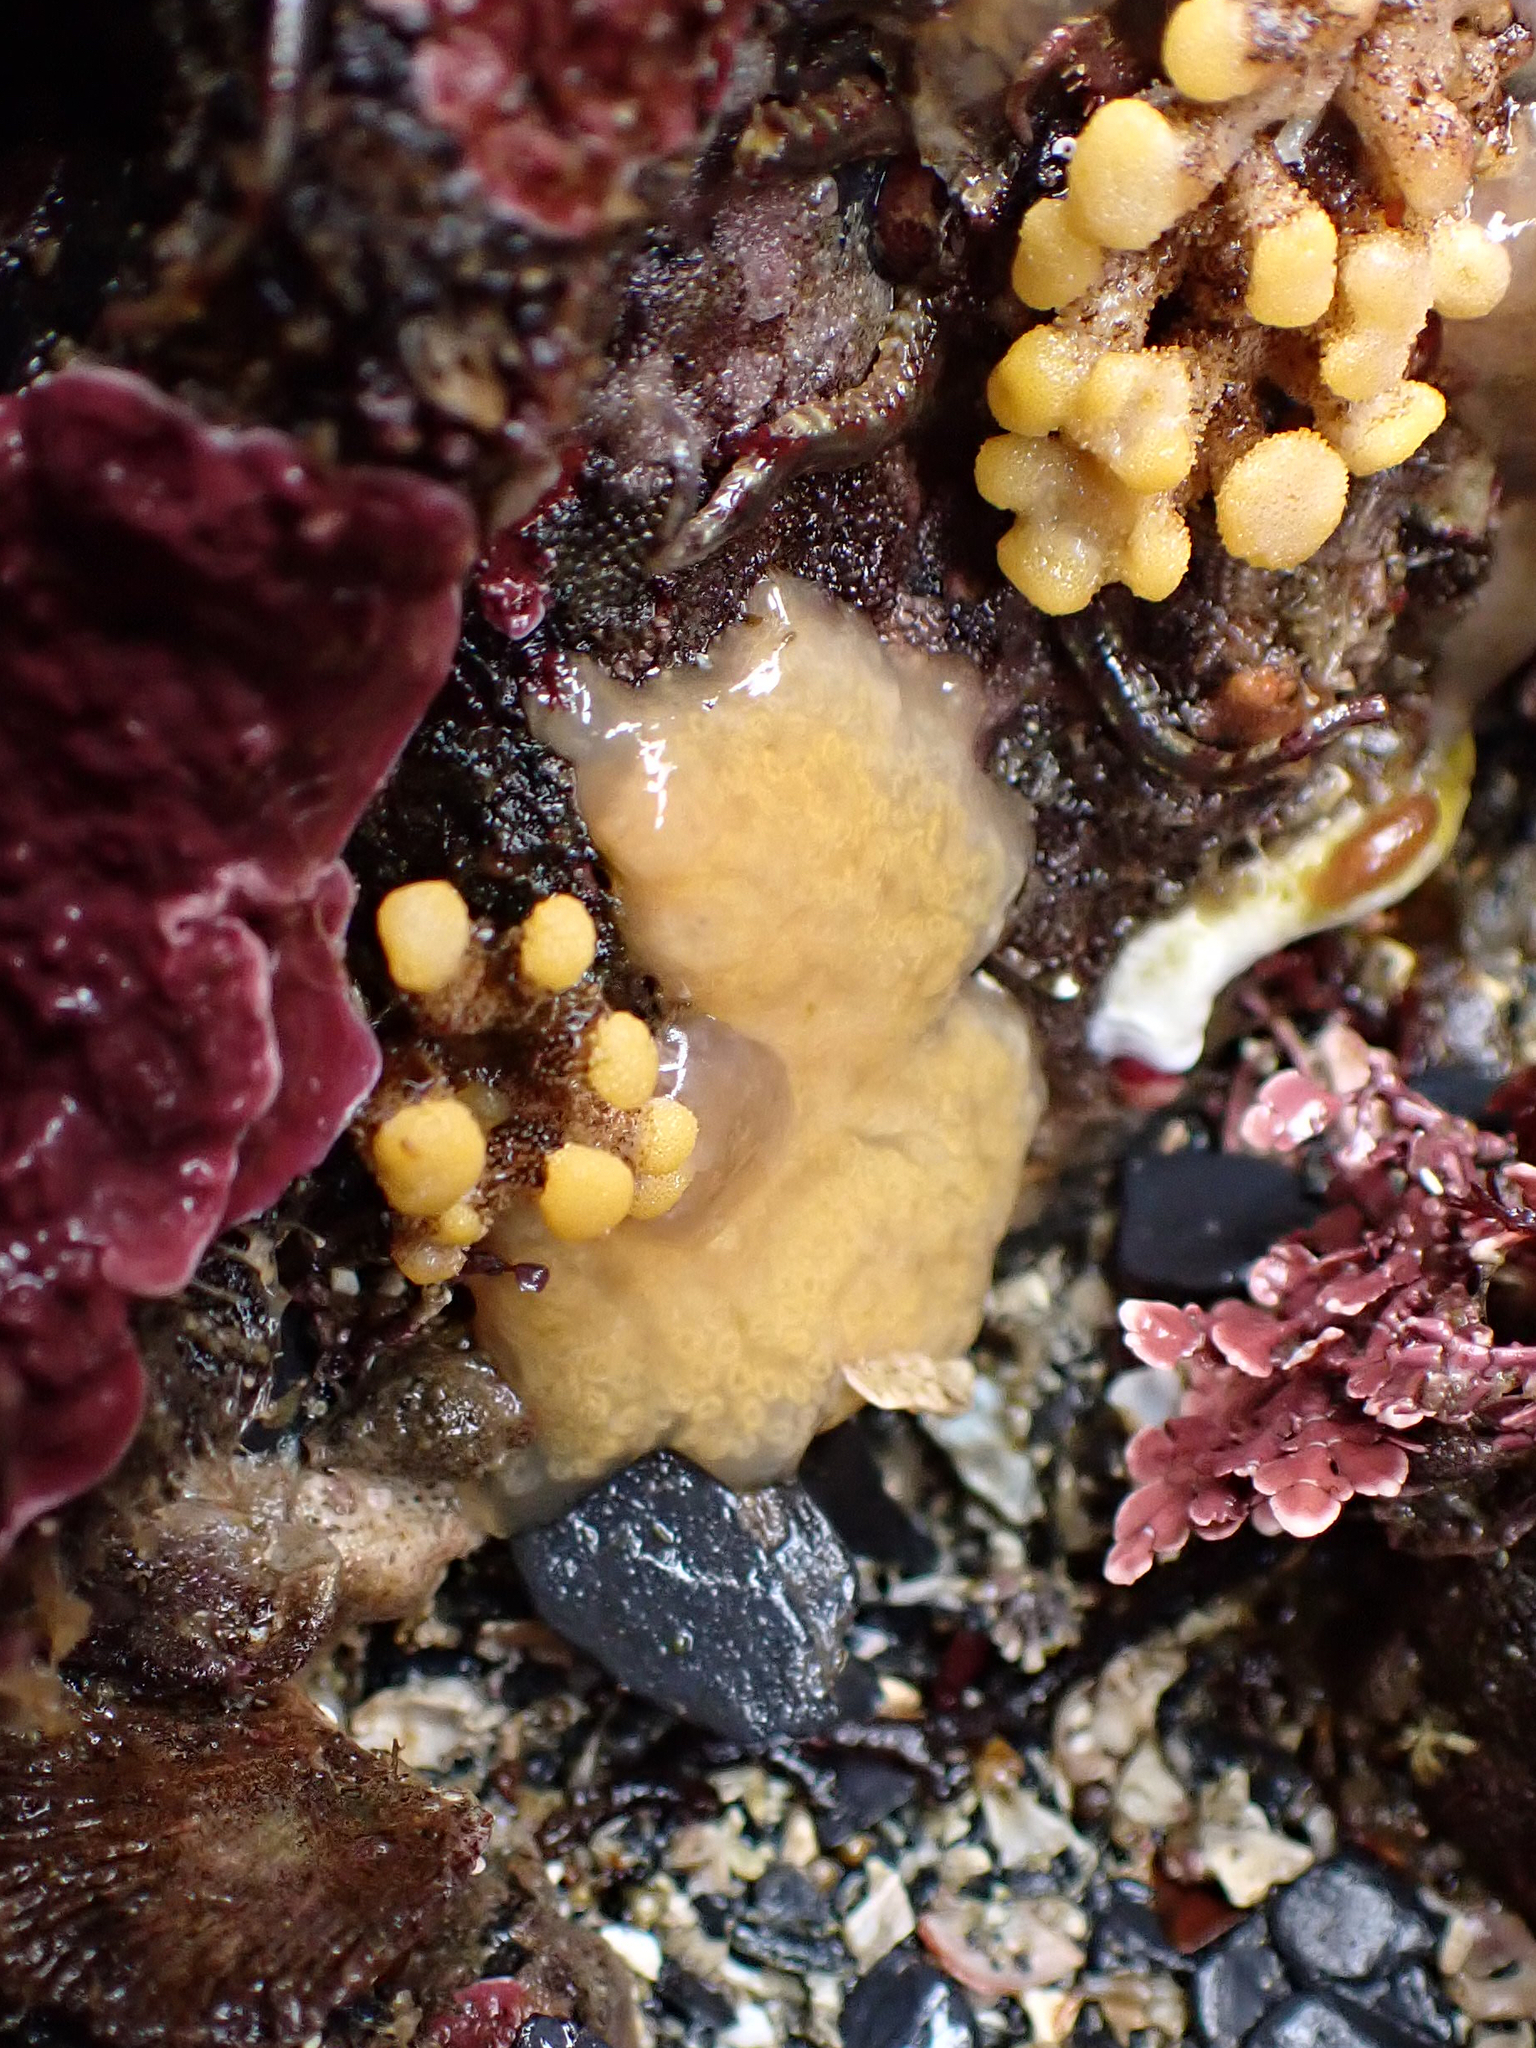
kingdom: Animalia
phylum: Chordata
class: Ascidiacea
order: Aplousobranchia
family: Holozoidae
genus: Distaplia
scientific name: Distaplia occidentalis
